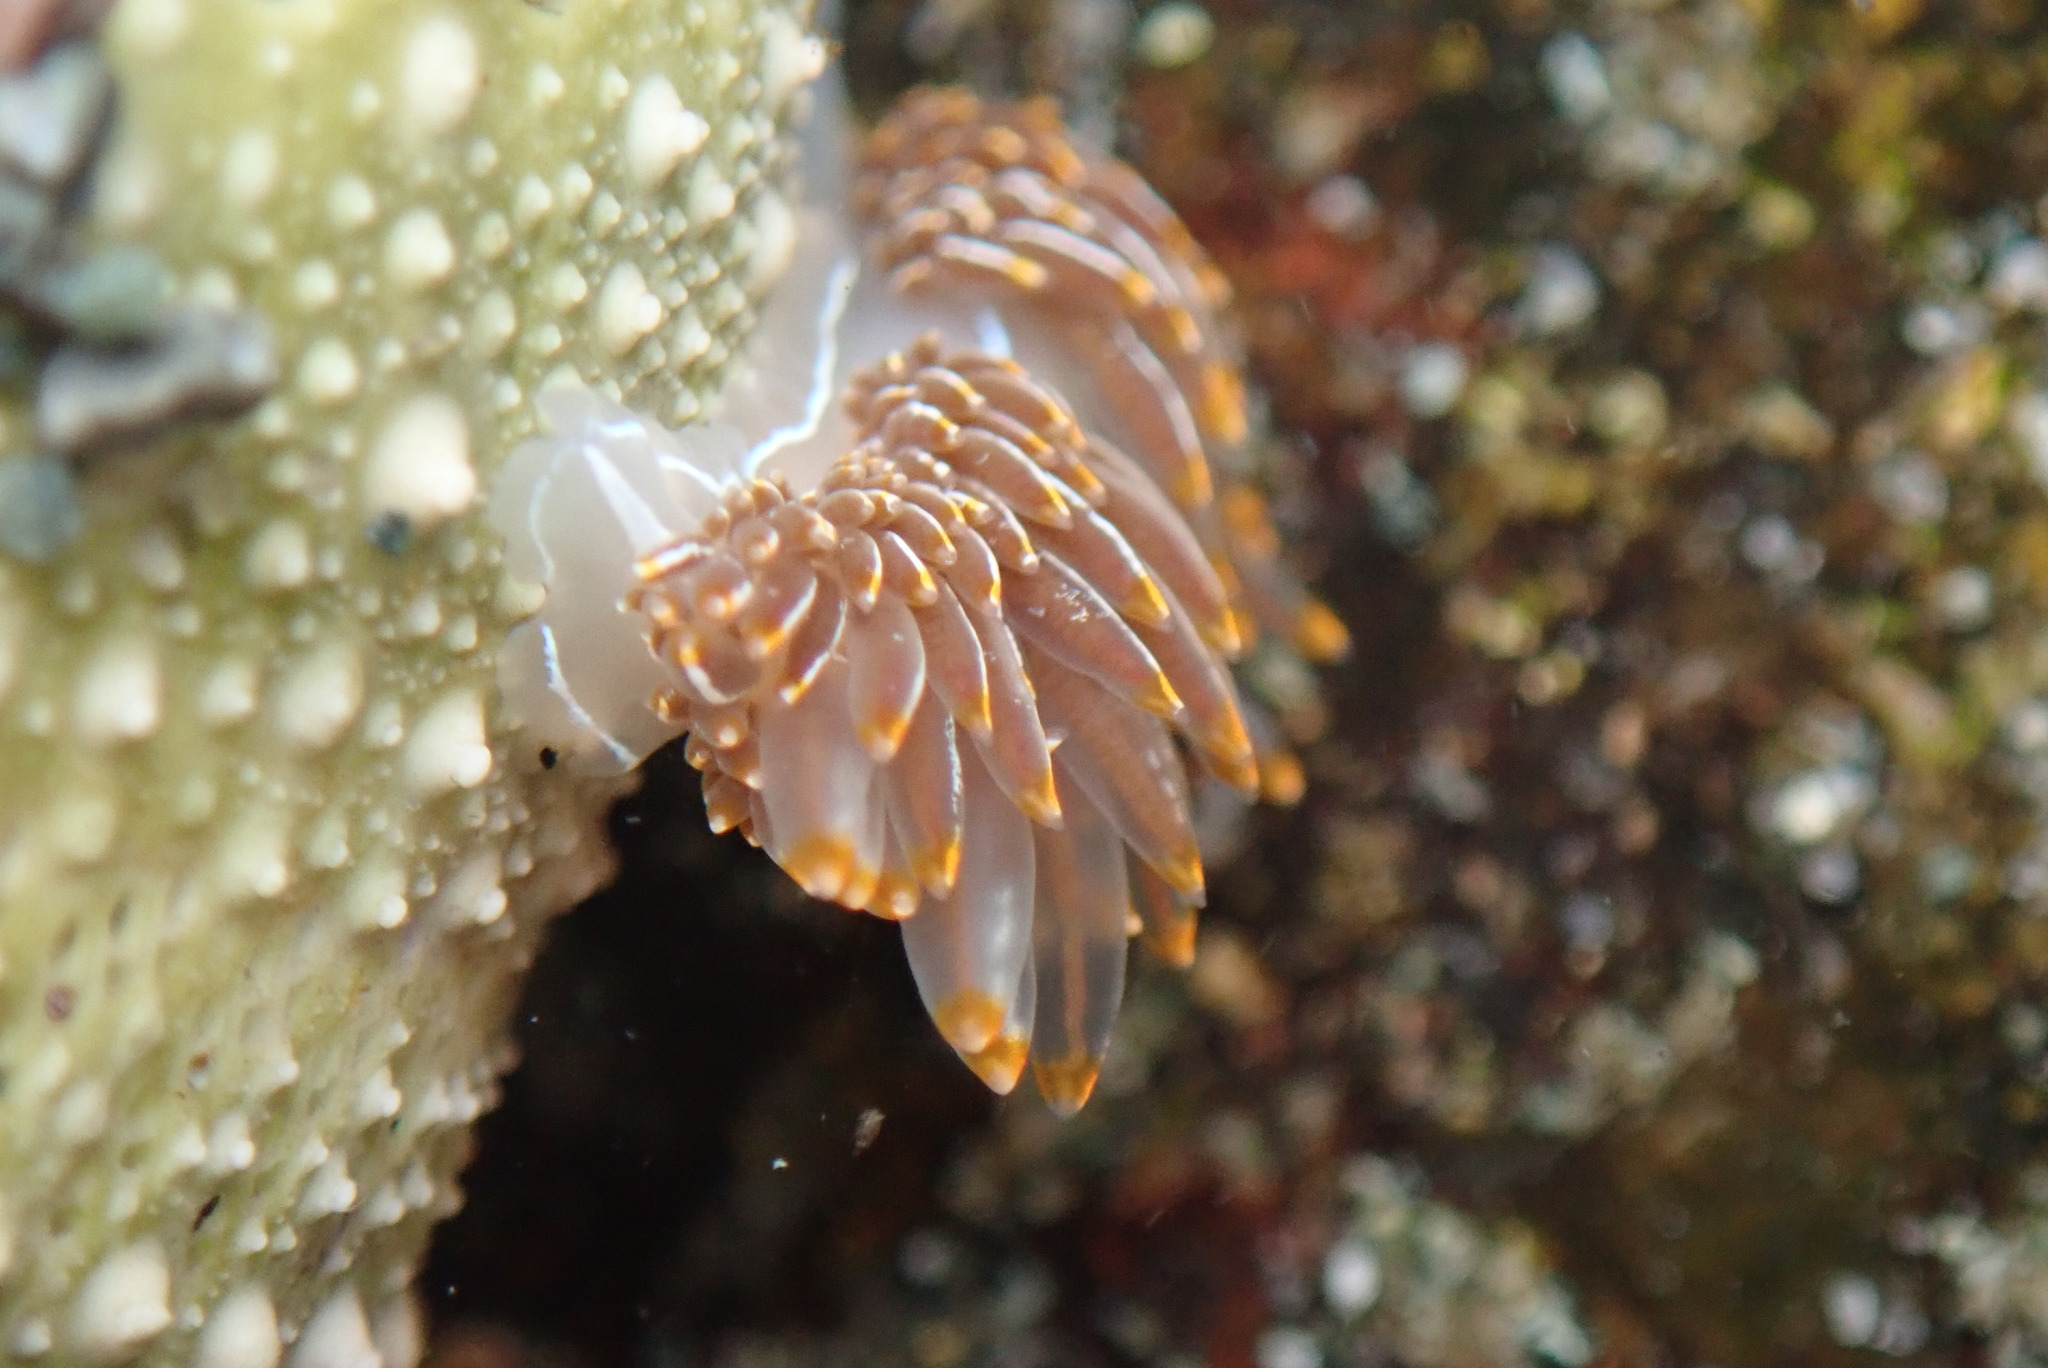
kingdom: Animalia
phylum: Mollusca
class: Gastropoda
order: Nudibranchia
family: Myrrhinidae
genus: Hermissenda
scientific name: Hermissenda crassicornis
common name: Hermissenda
